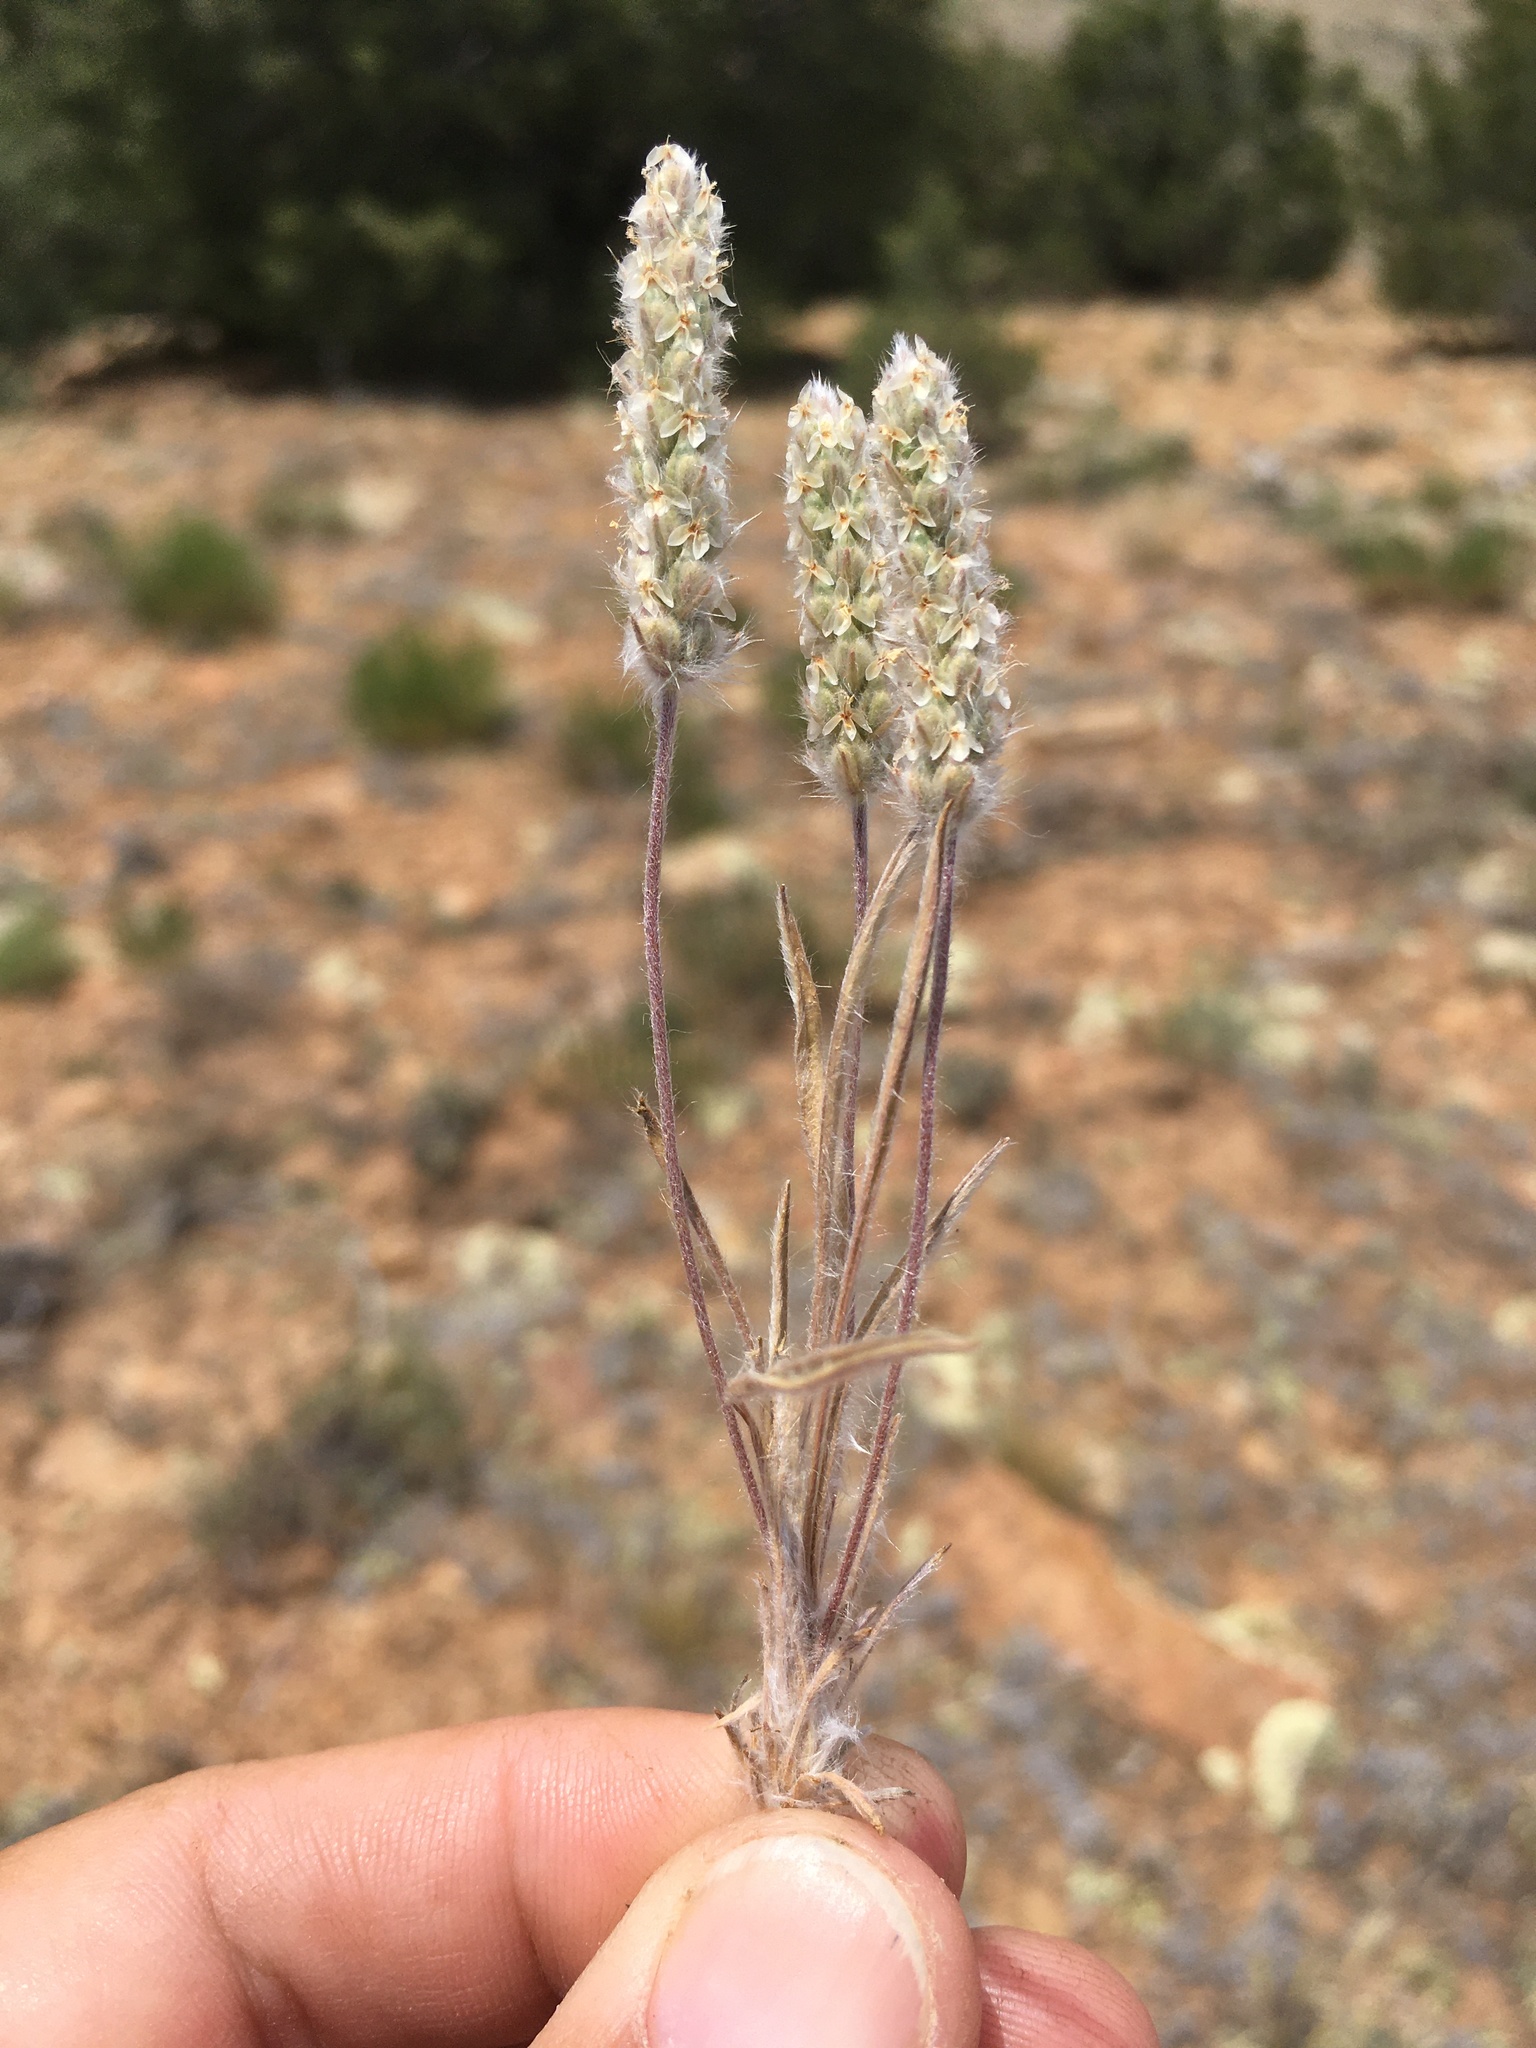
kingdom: Plantae
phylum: Tracheophyta
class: Magnoliopsida
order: Lamiales
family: Plantaginaceae
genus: Plantago
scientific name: Plantago patagonica
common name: Patagonia indian-wheat
